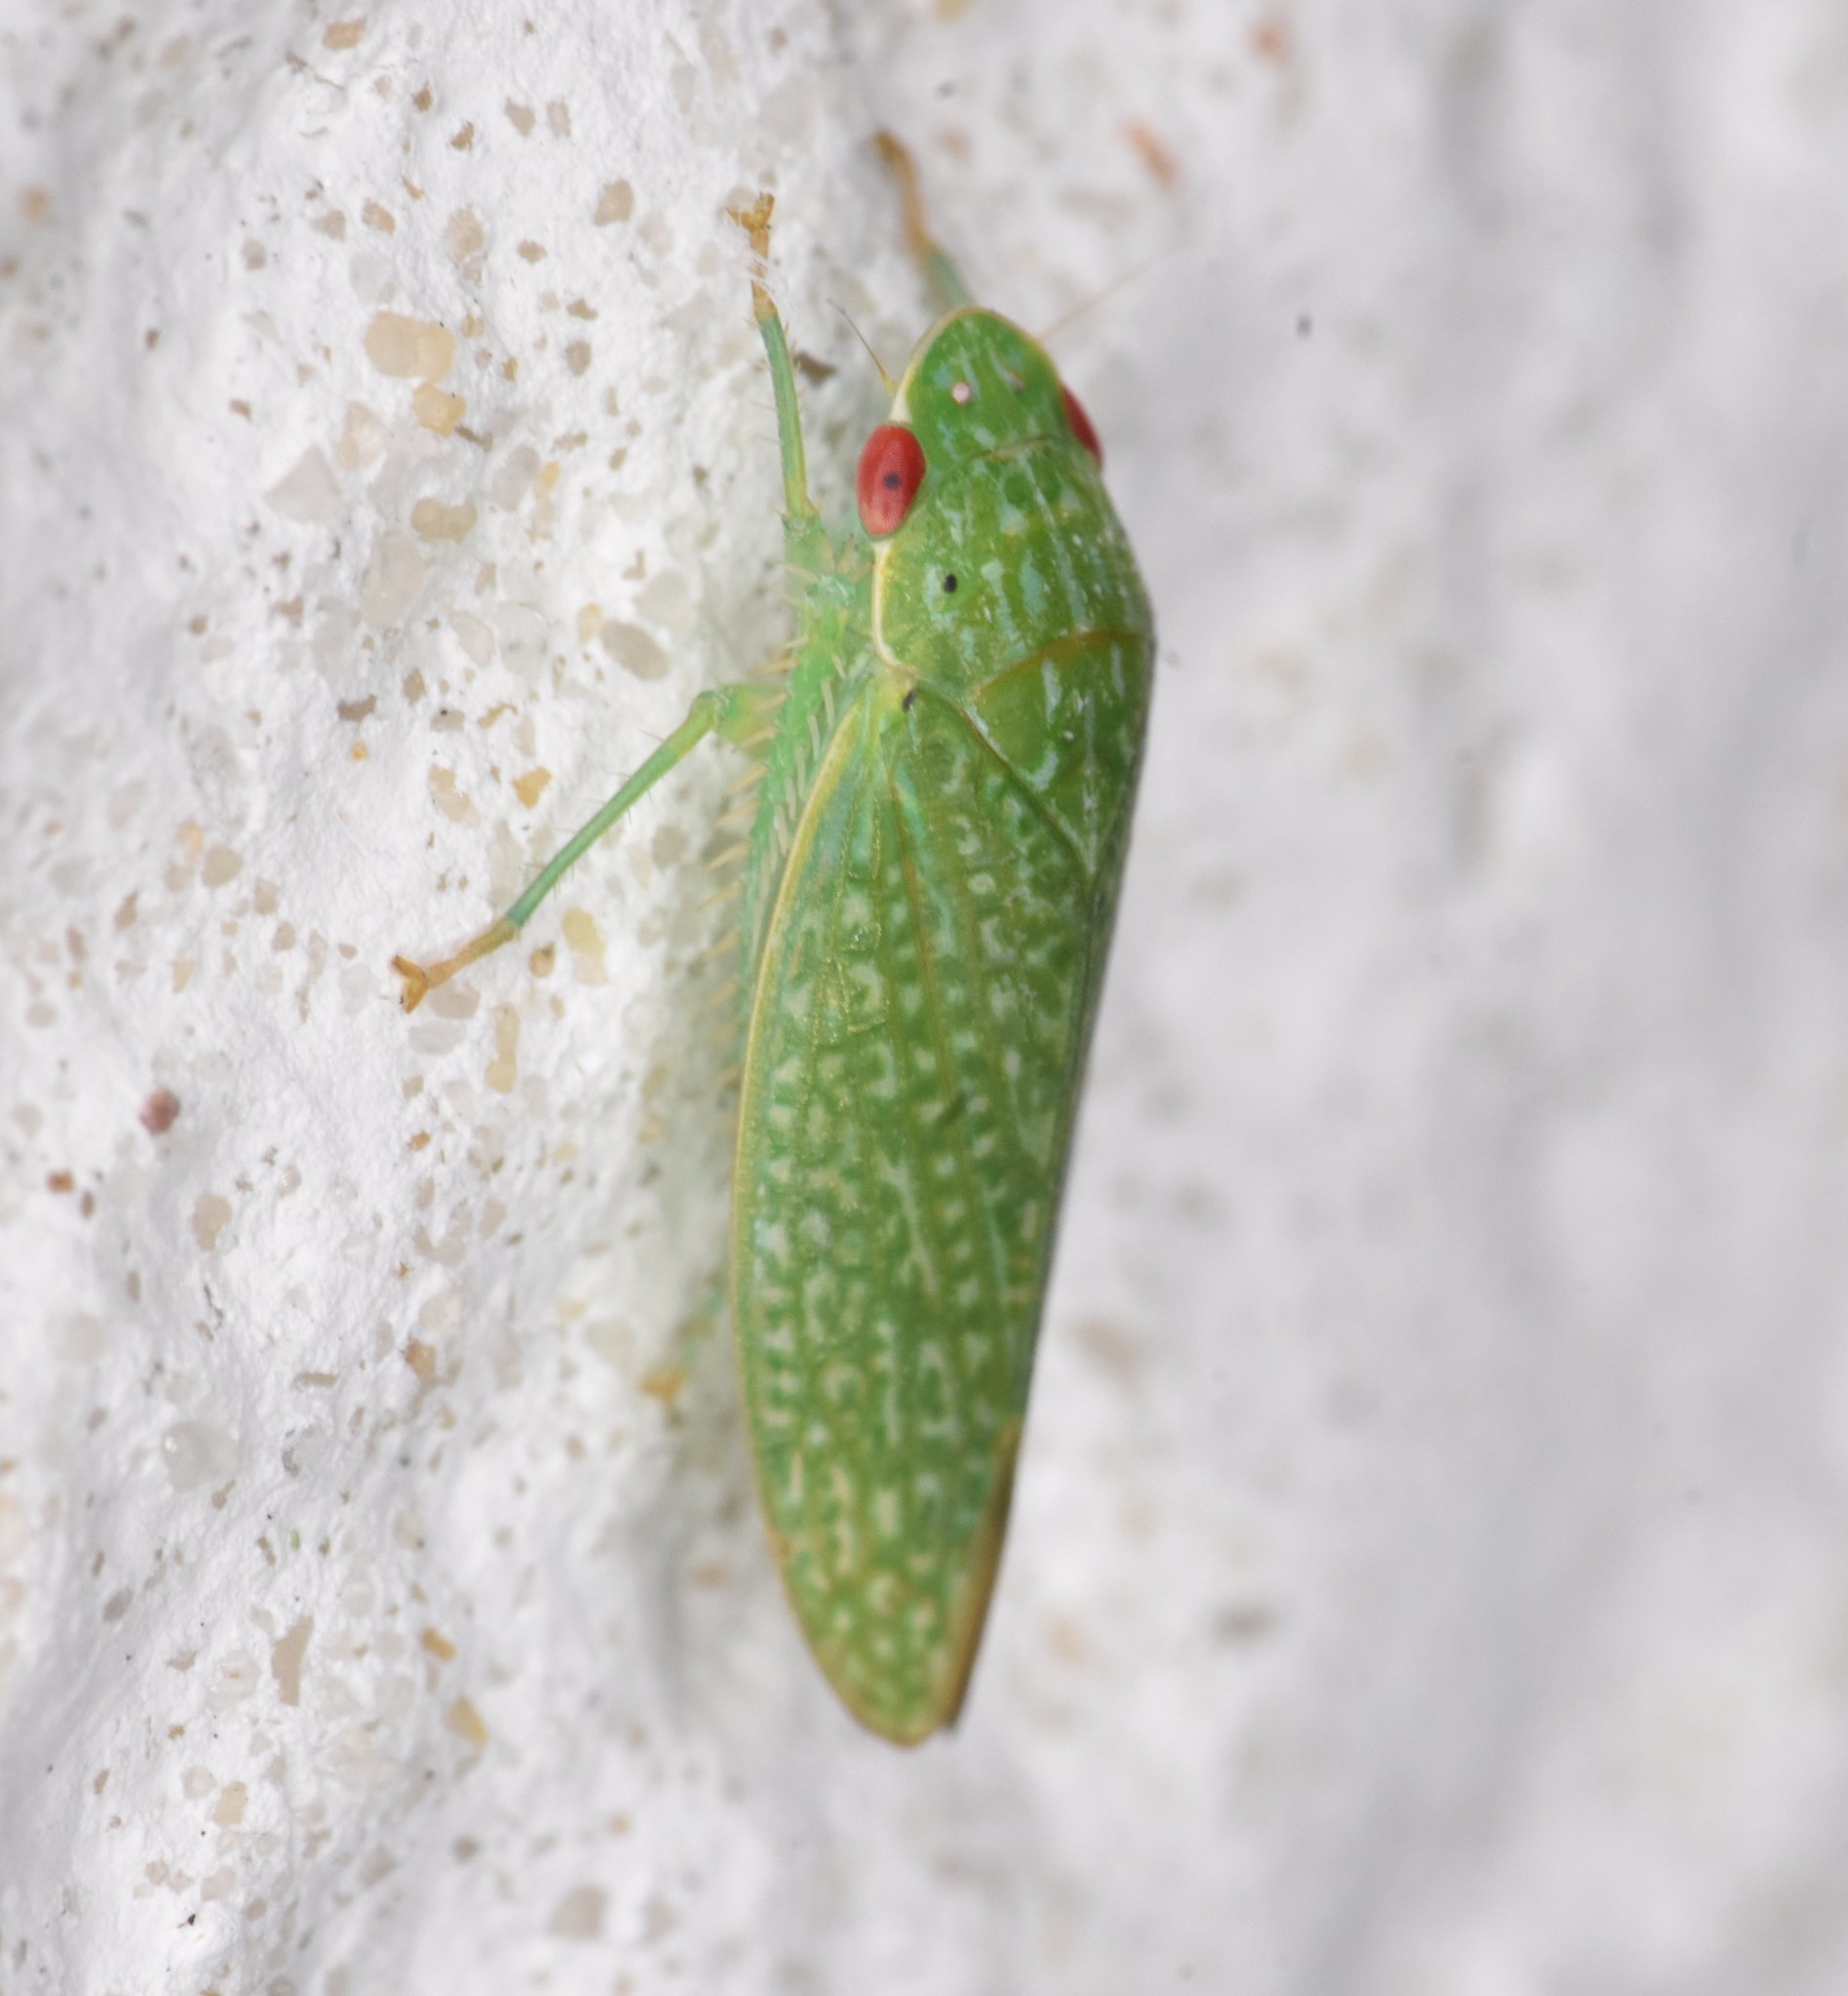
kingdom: Animalia
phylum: Arthropoda
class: Insecta
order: Hemiptera
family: Cicadellidae
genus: Rugosana
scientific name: Rugosana querci
